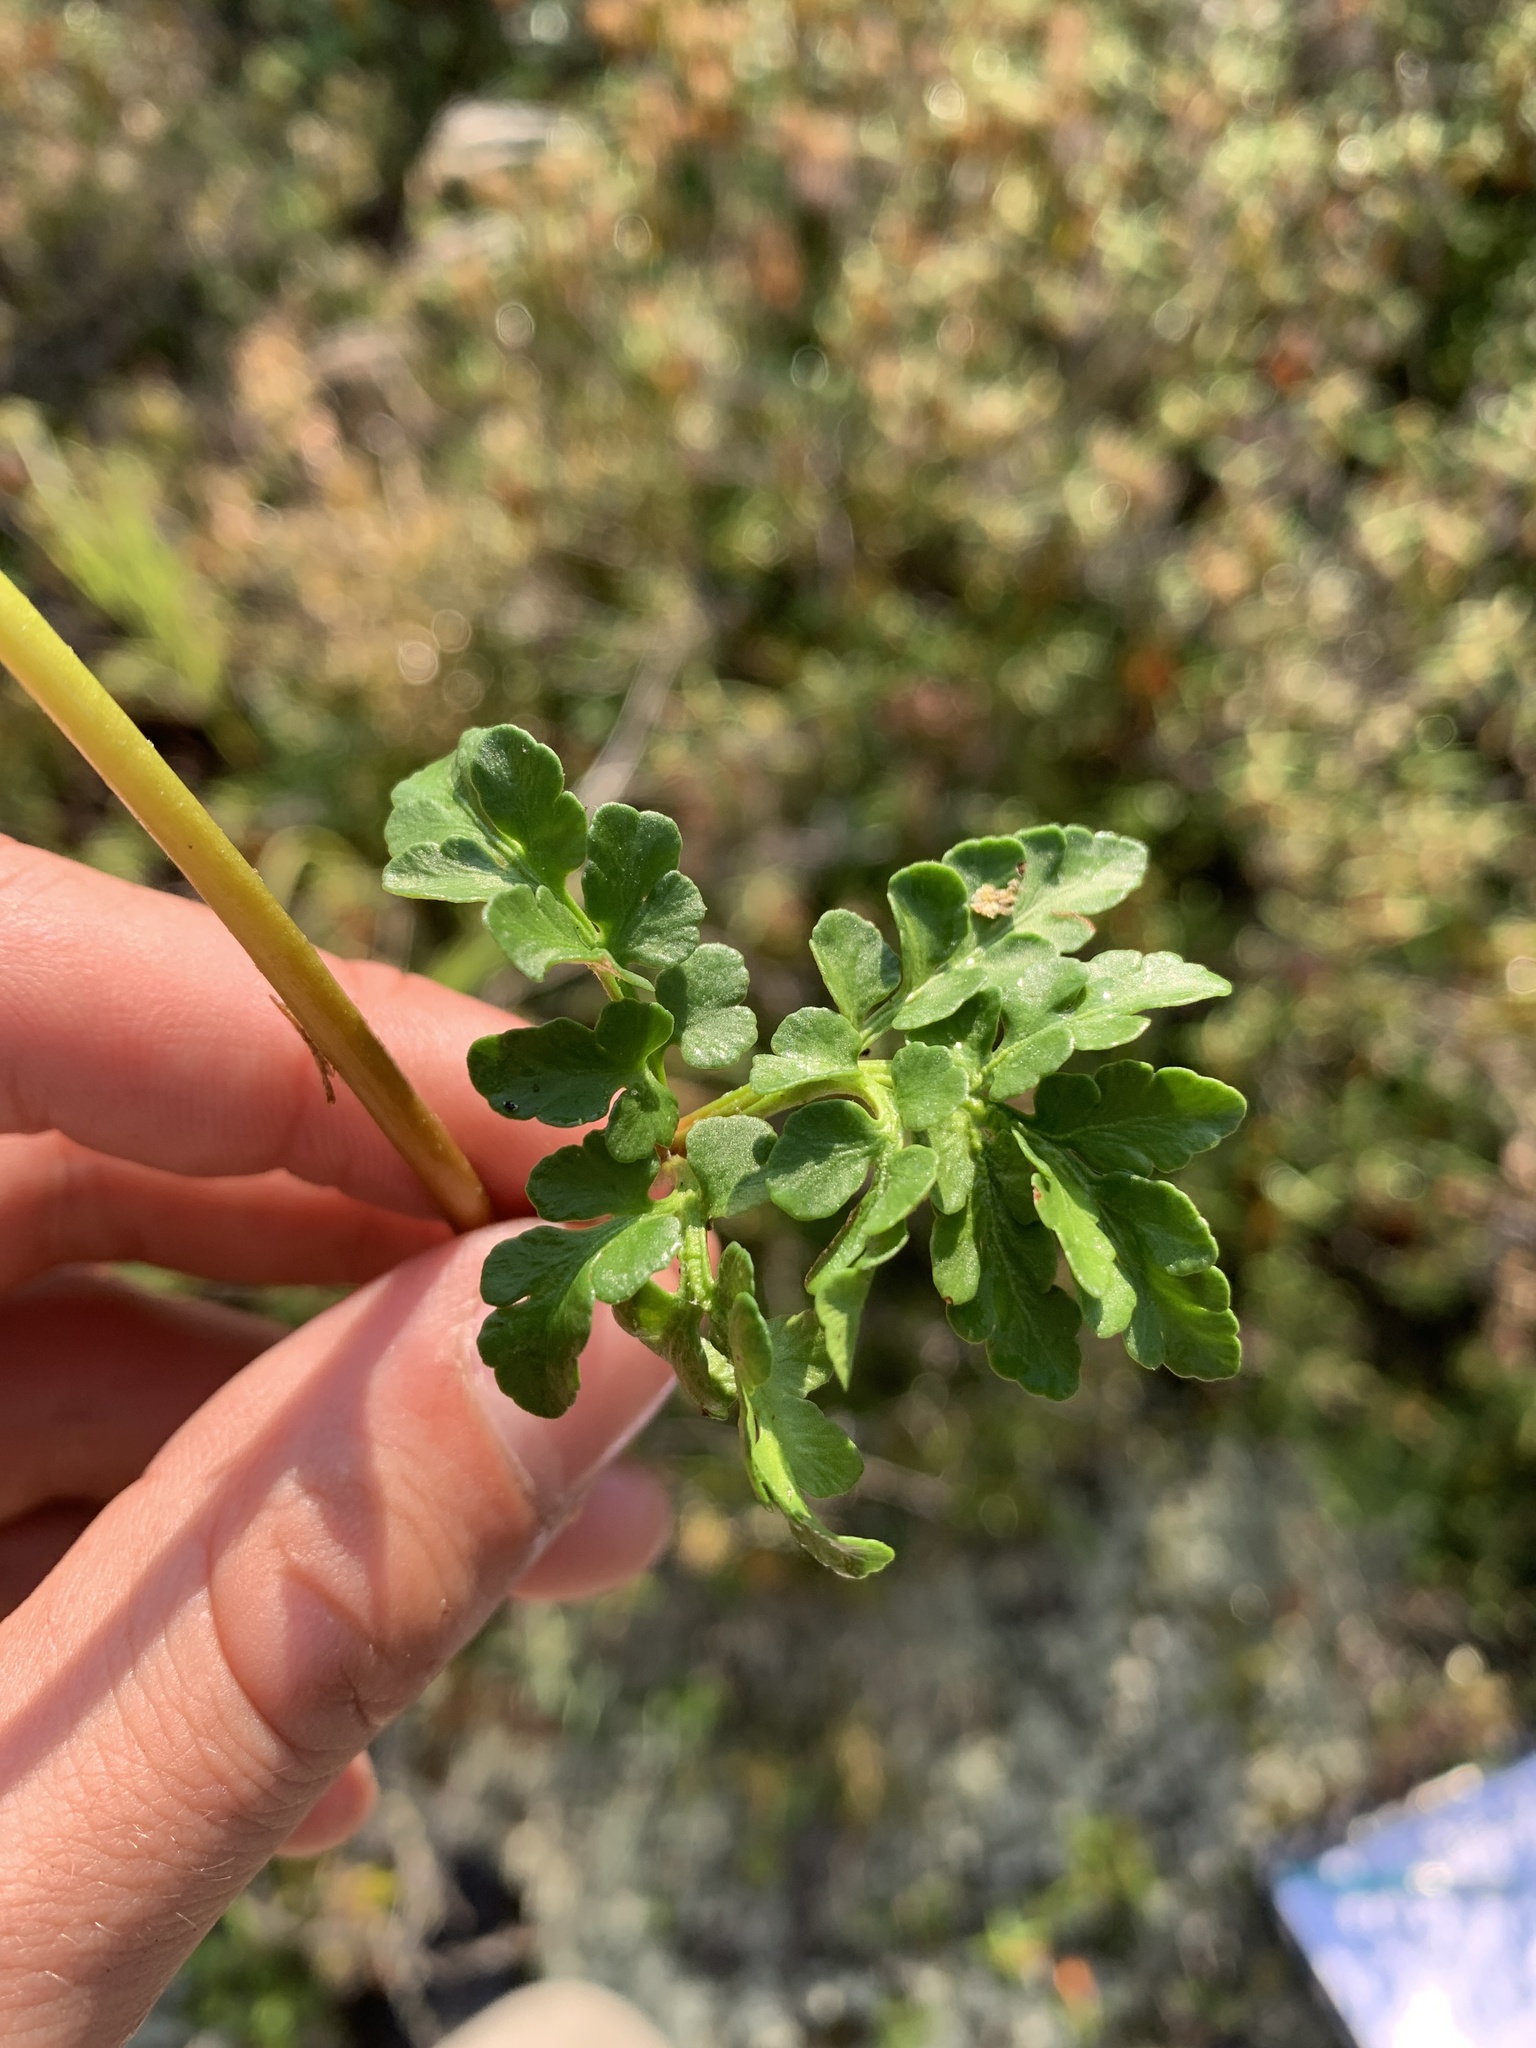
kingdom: Plantae
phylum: Tracheophyta
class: Polypodiopsida
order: Ophioglossales
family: Ophioglossaceae
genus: Sceptridium
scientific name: Sceptridium multifidum
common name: Leathery grape fern
